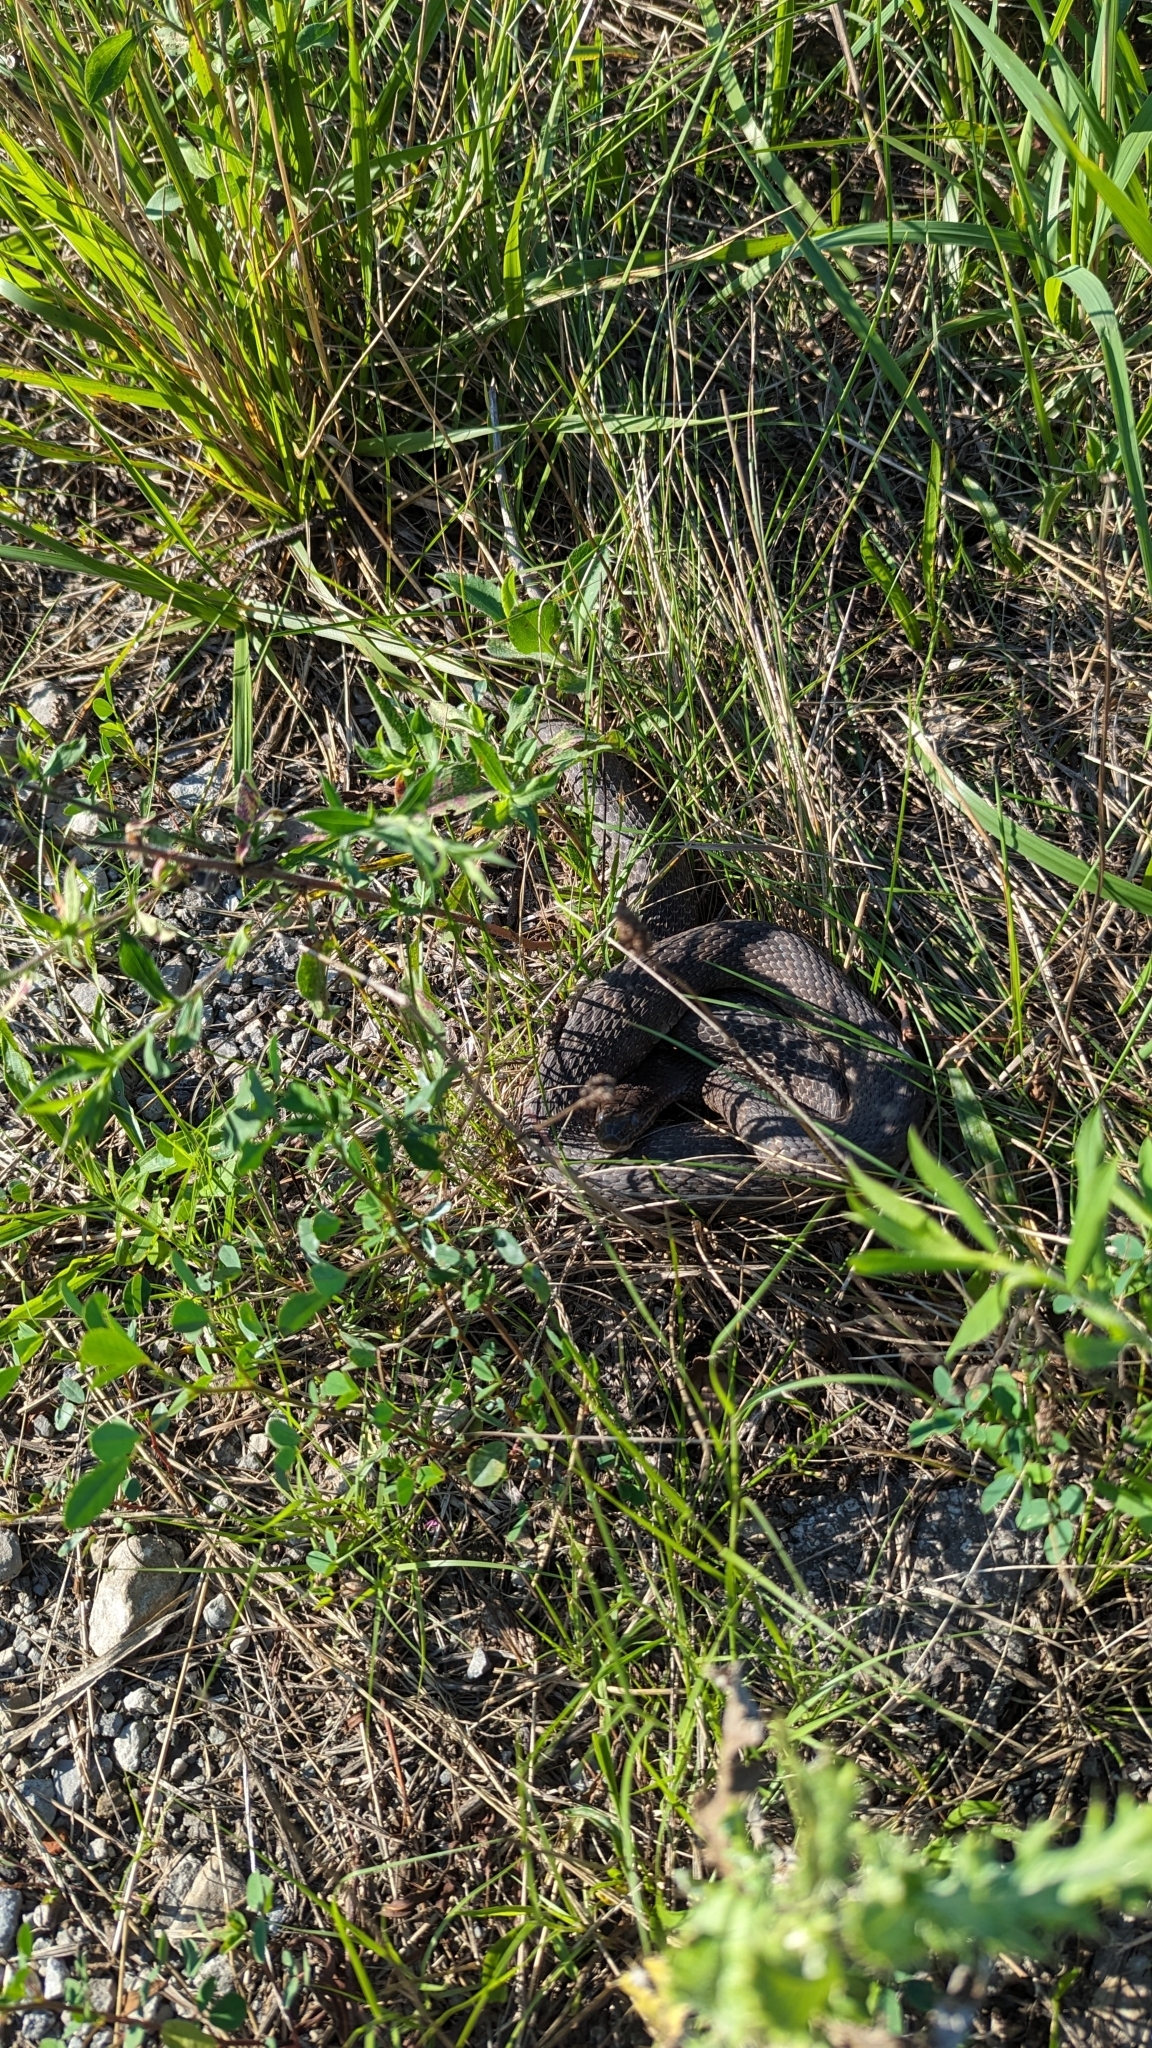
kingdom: Animalia
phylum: Chordata
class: Squamata
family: Colubridae
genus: Nerodia
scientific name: Nerodia sipedon
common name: Northern water snake
